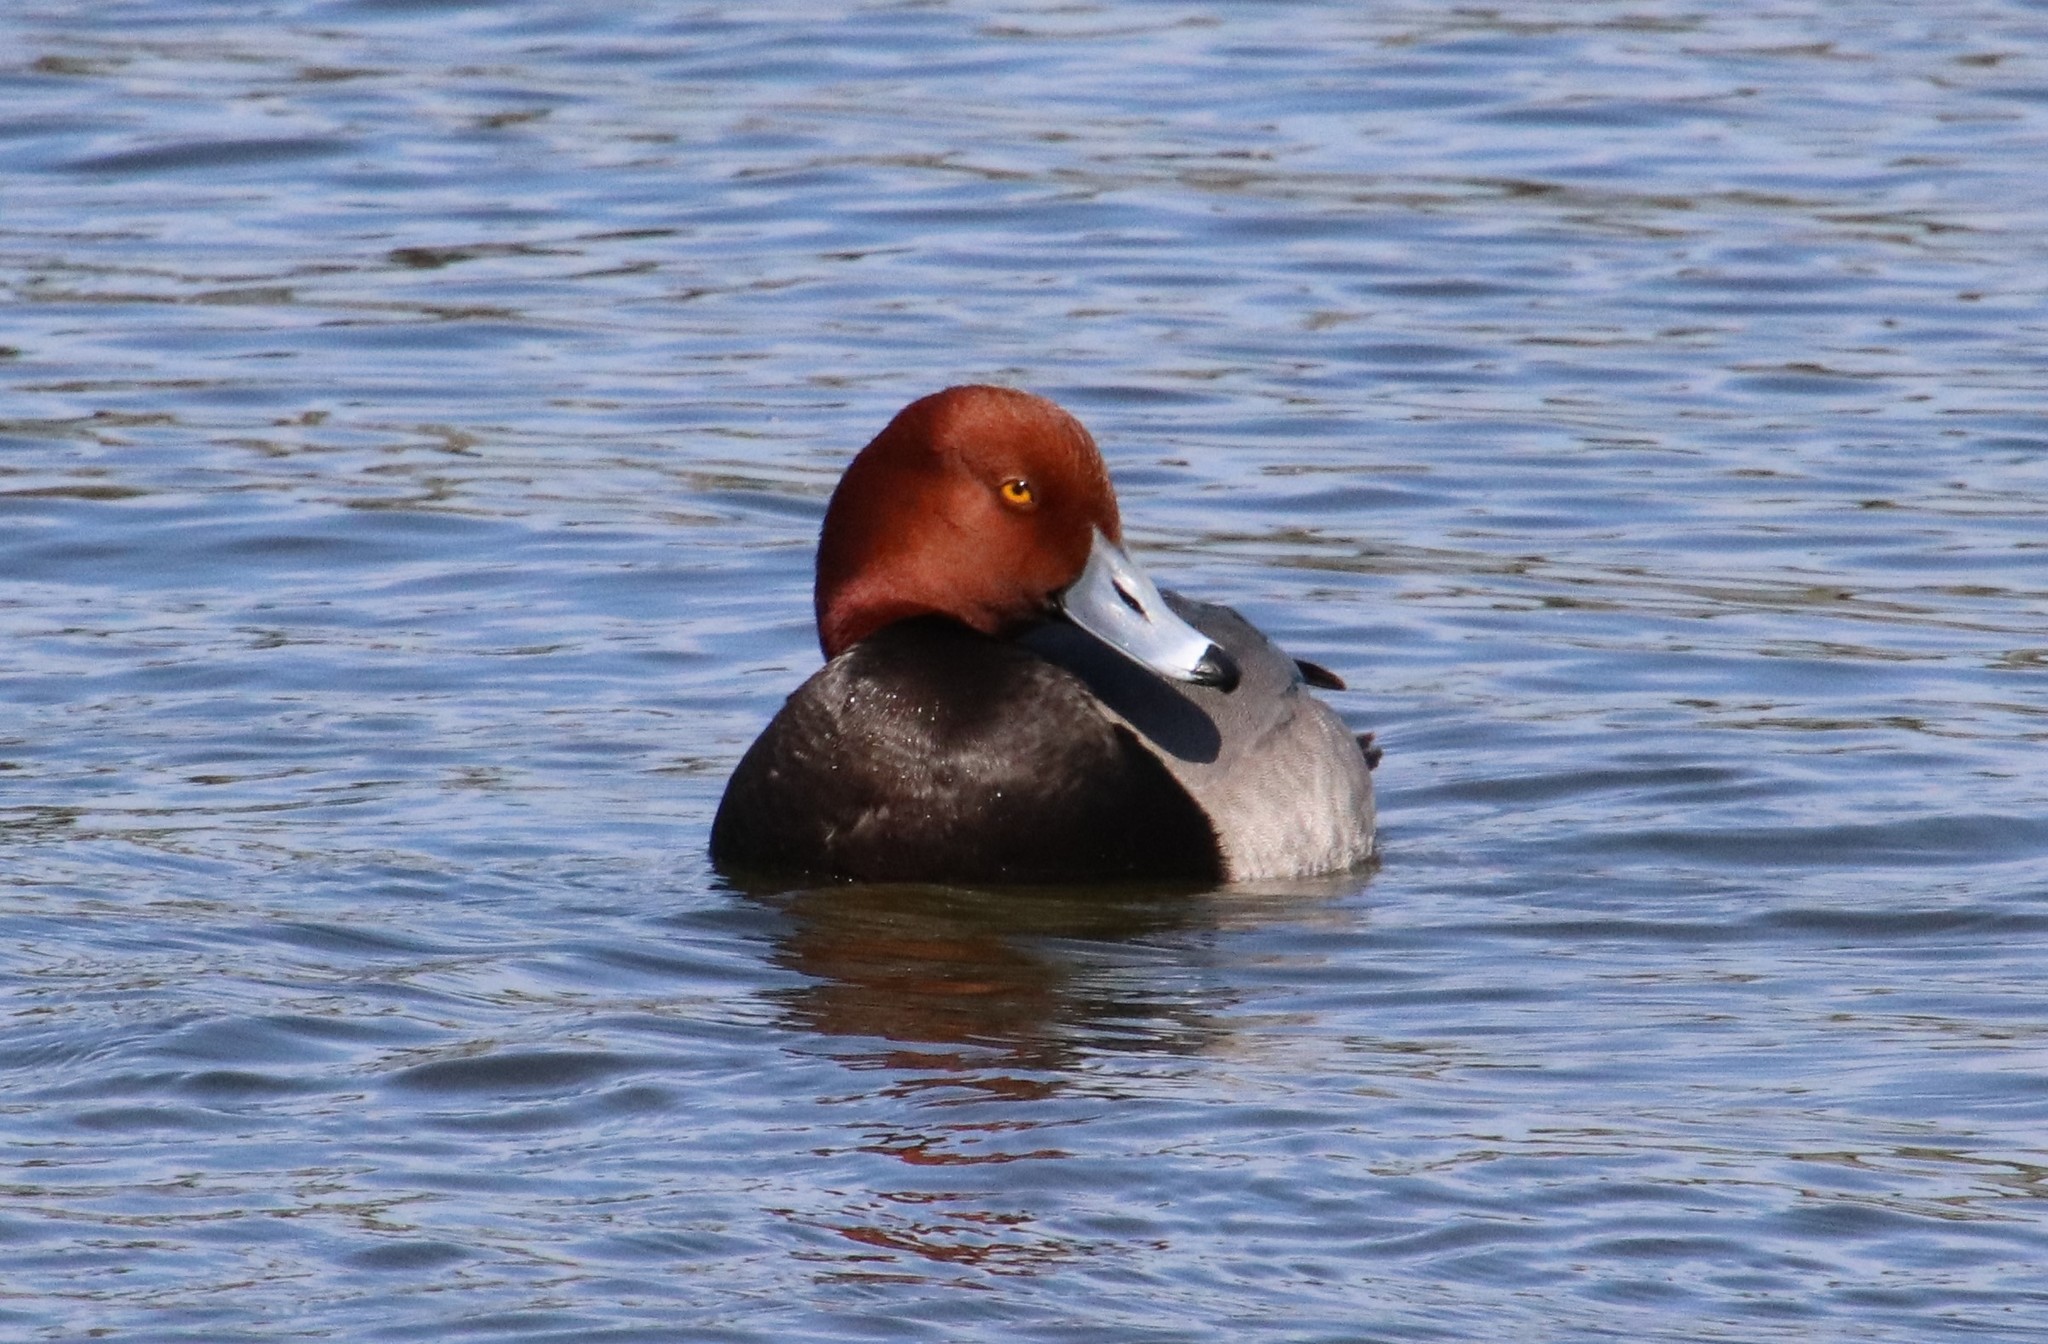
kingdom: Animalia
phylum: Chordata
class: Aves
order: Anseriformes
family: Anatidae
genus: Aythya
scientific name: Aythya americana
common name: Redhead
